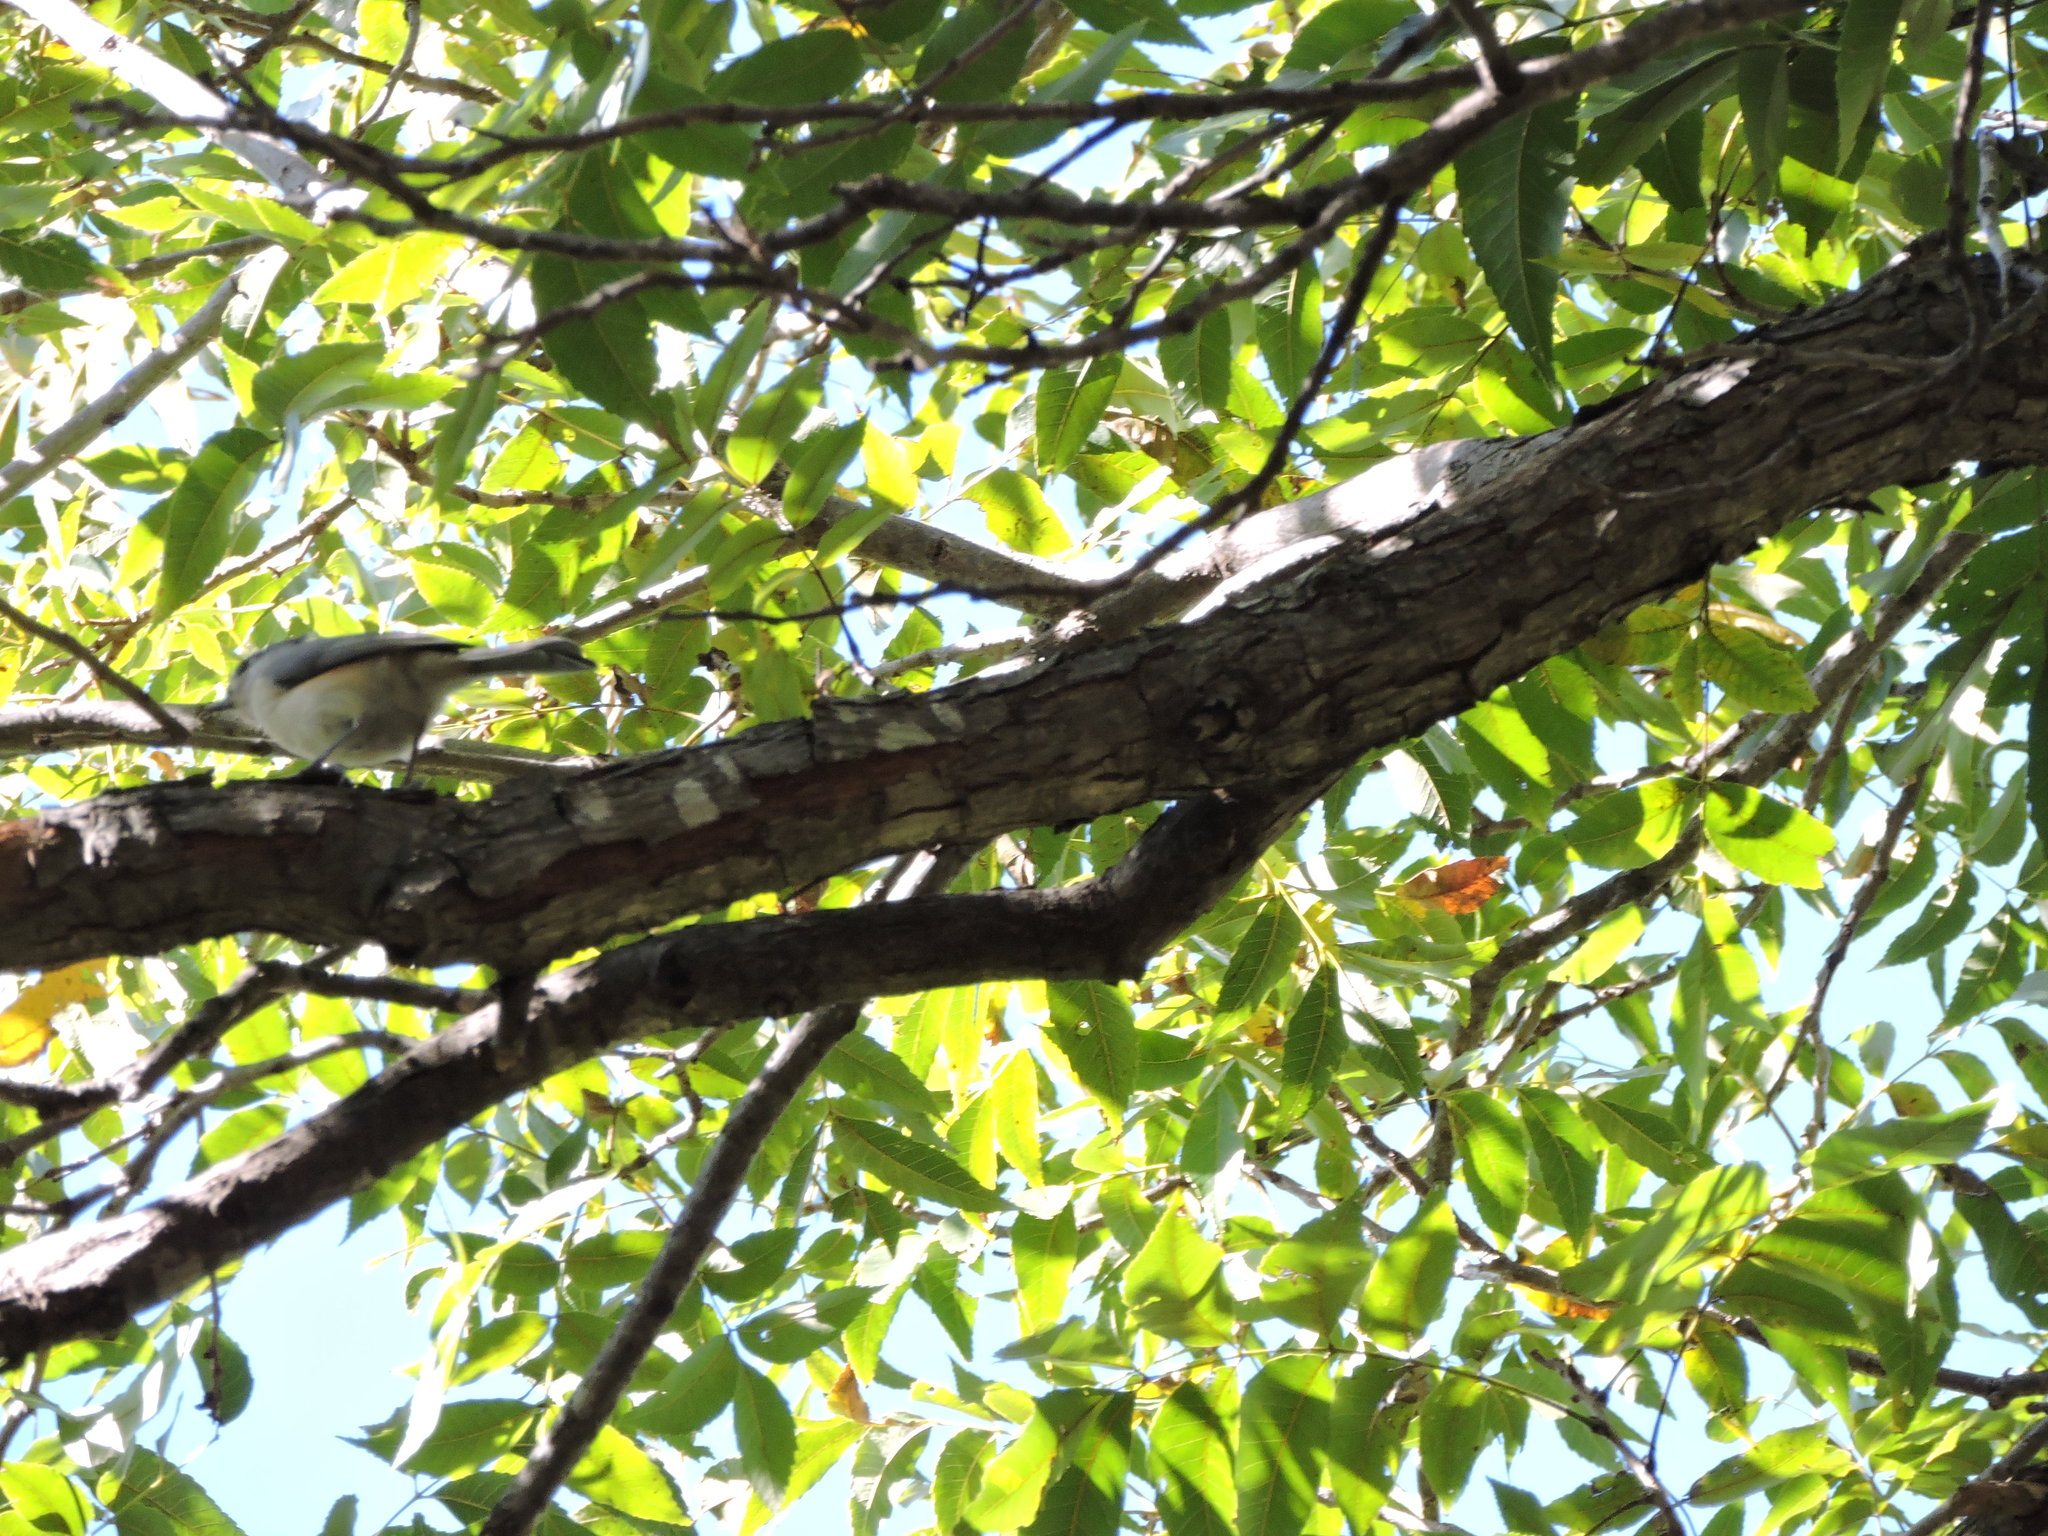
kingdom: Animalia
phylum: Chordata
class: Aves
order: Passeriformes
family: Paridae
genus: Baeolophus
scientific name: Baeolophus bicolor
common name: Tufted titmouse
